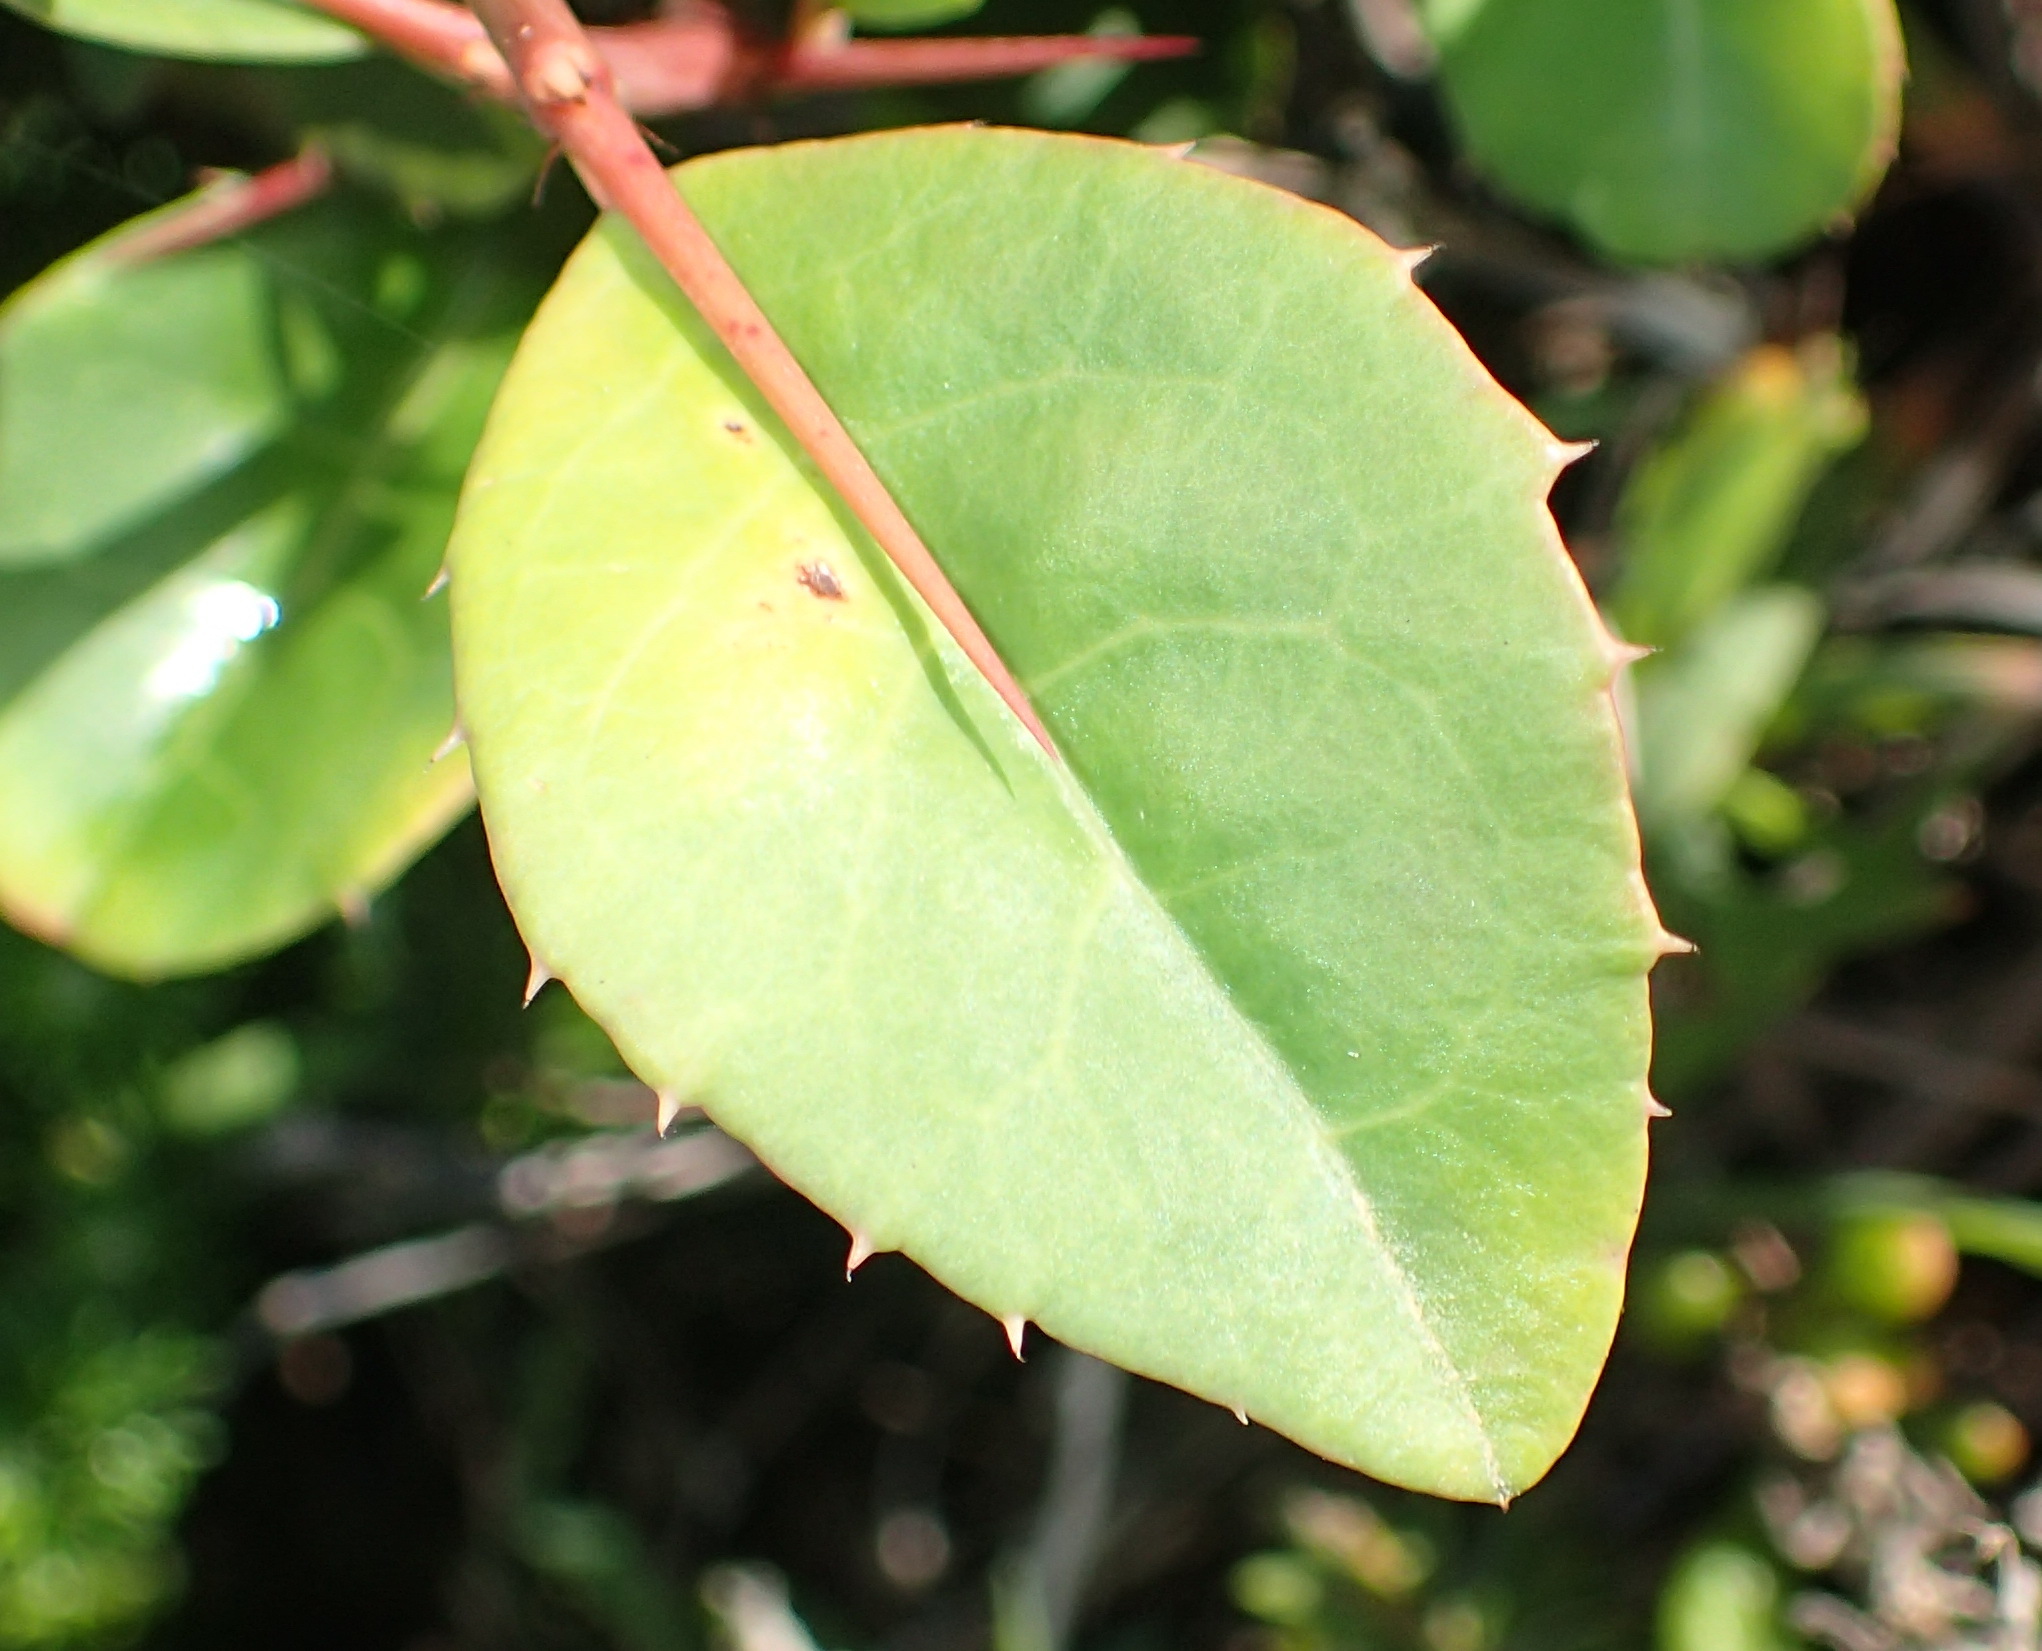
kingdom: Plantae
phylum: Tracheophyta
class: Magnoliopsida
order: Celastrales
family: Celastraceae
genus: Gymnosporia
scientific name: Gymnosporia nemorosa
